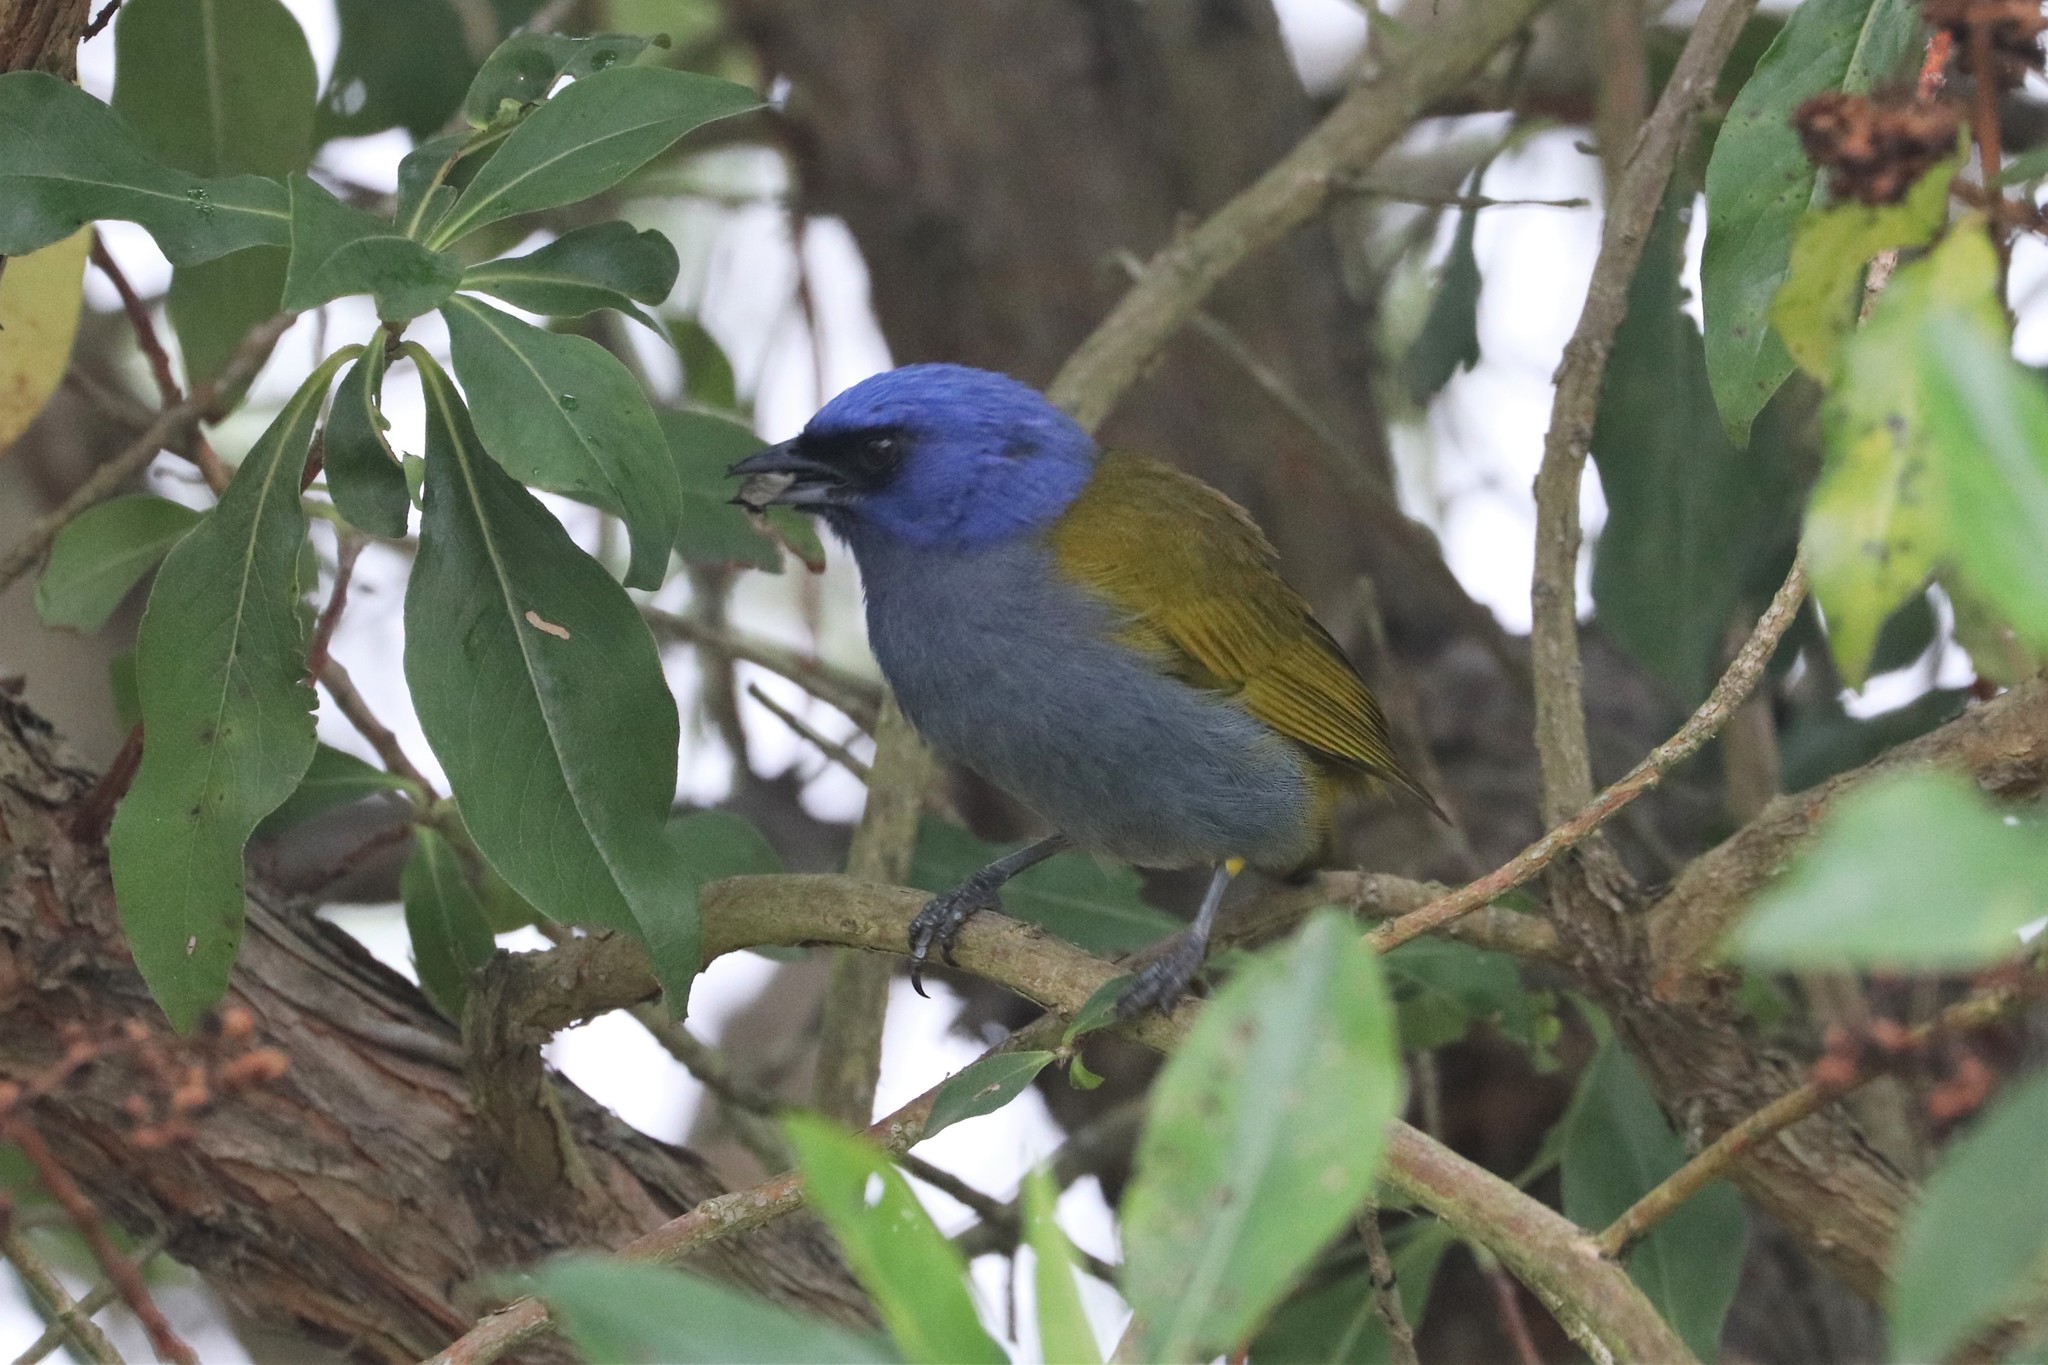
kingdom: Animalia
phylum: Chordata
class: Aves
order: Passeriformes
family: Thraupidae
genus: Sporathraupis
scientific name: Sporathraupis cyanocephala
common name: Blue-capped tanager
